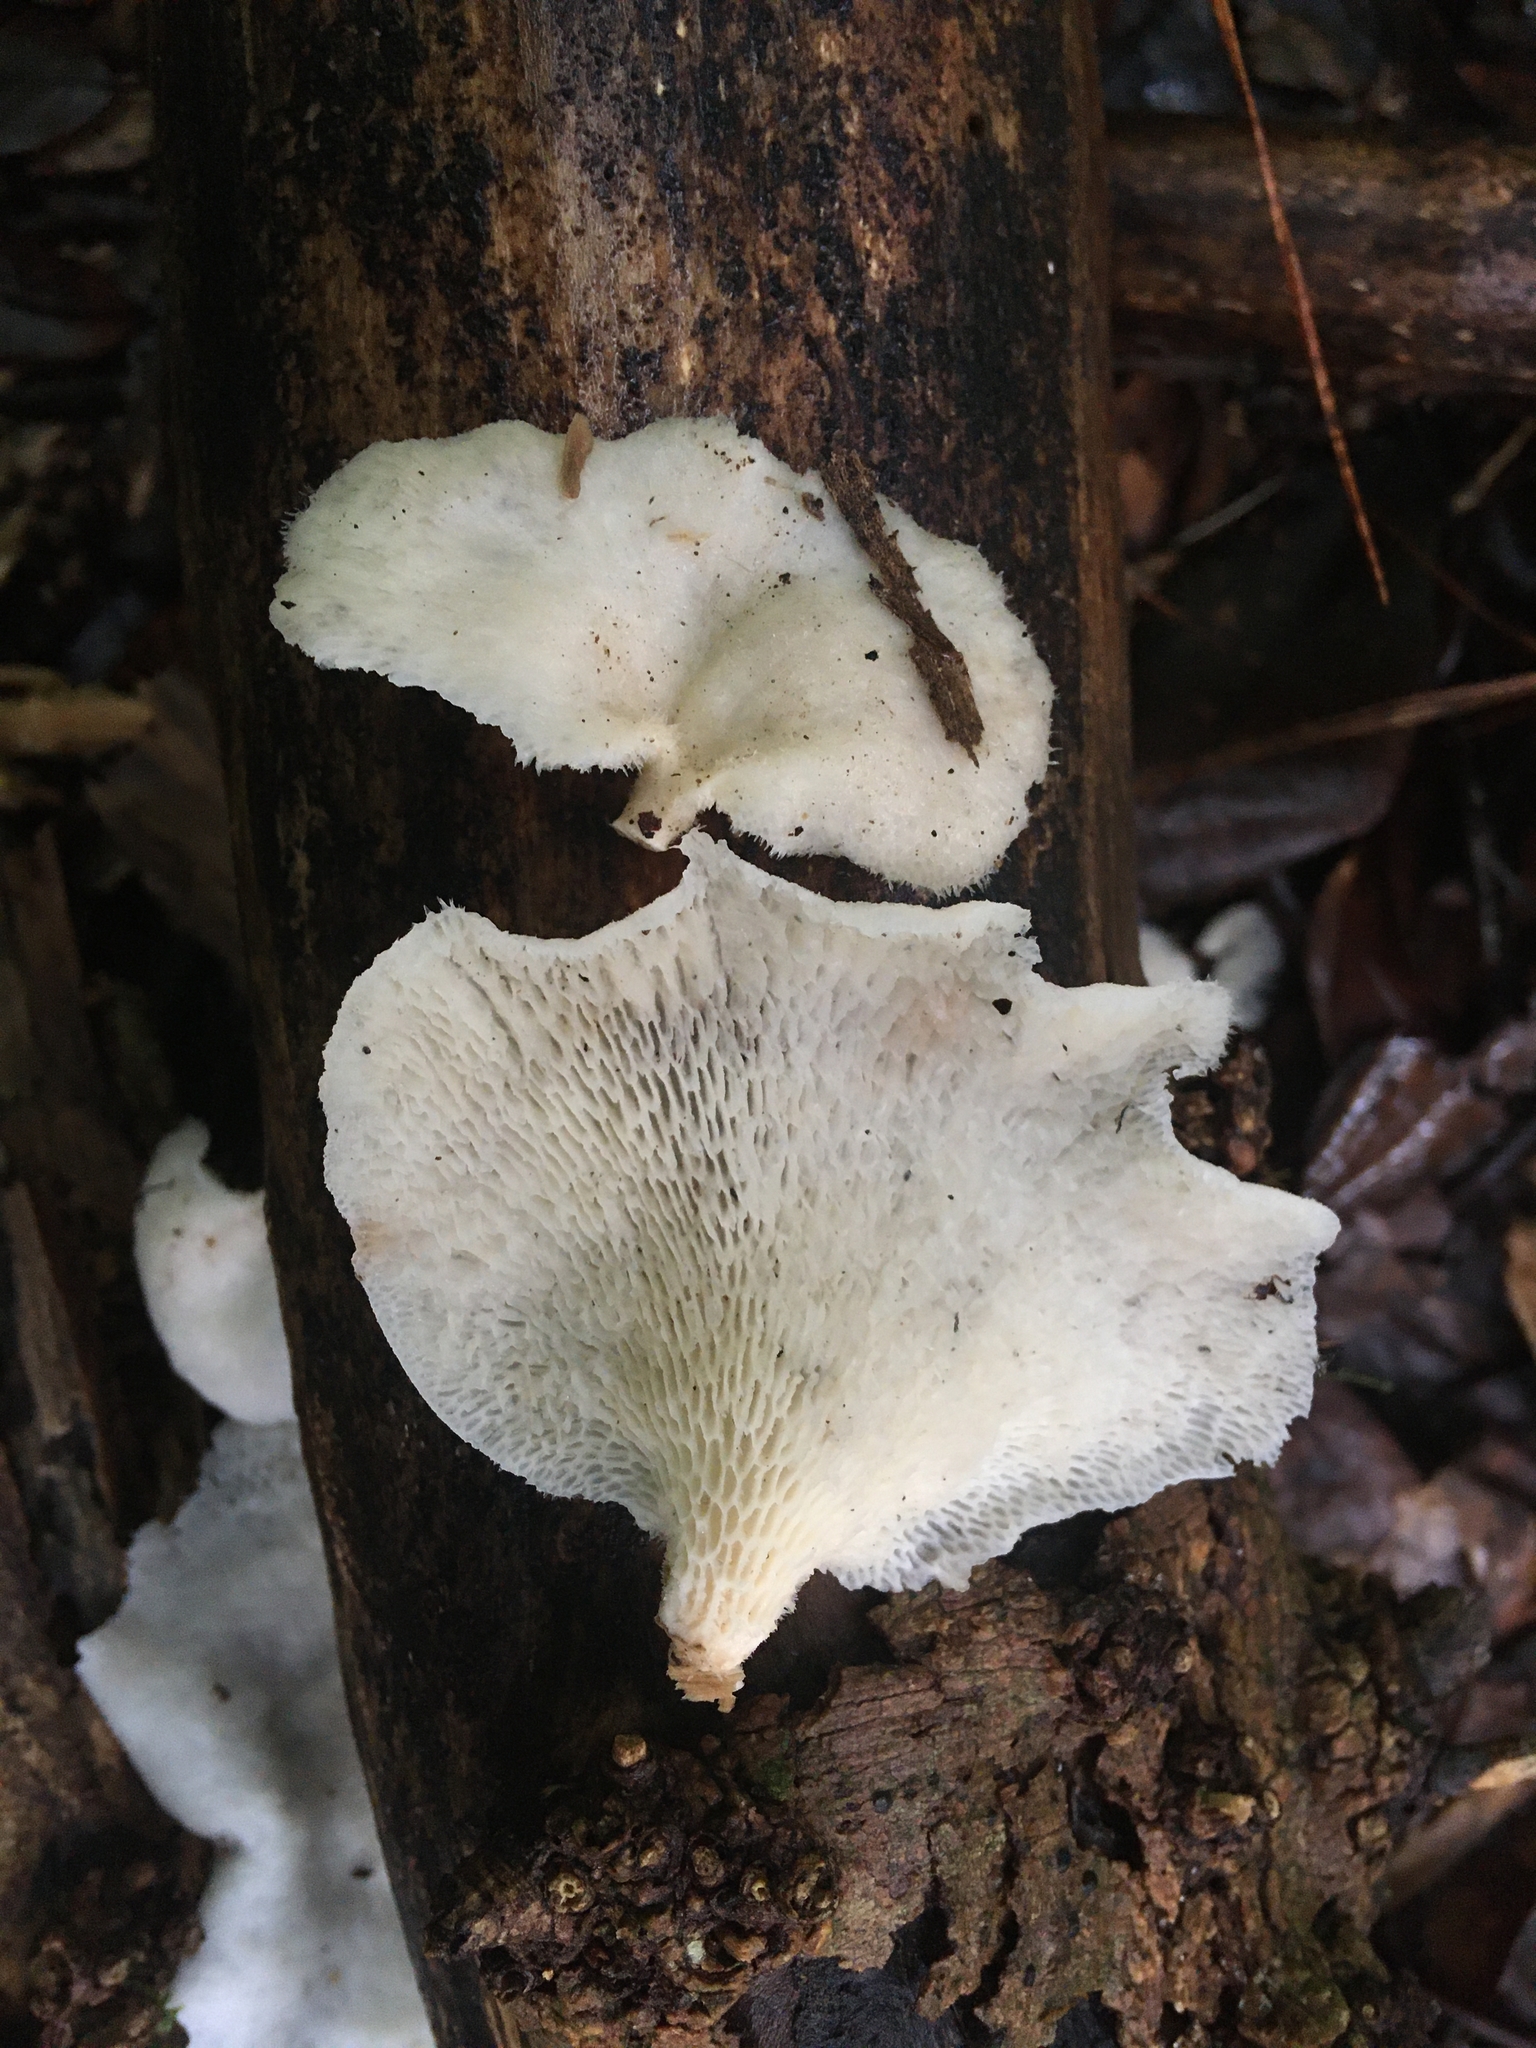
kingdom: Fungi
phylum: Basidiomycota
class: Agaricomycetes
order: Polyporales
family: Polyporaceae
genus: Favolus
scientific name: Favolus tenuiculus
